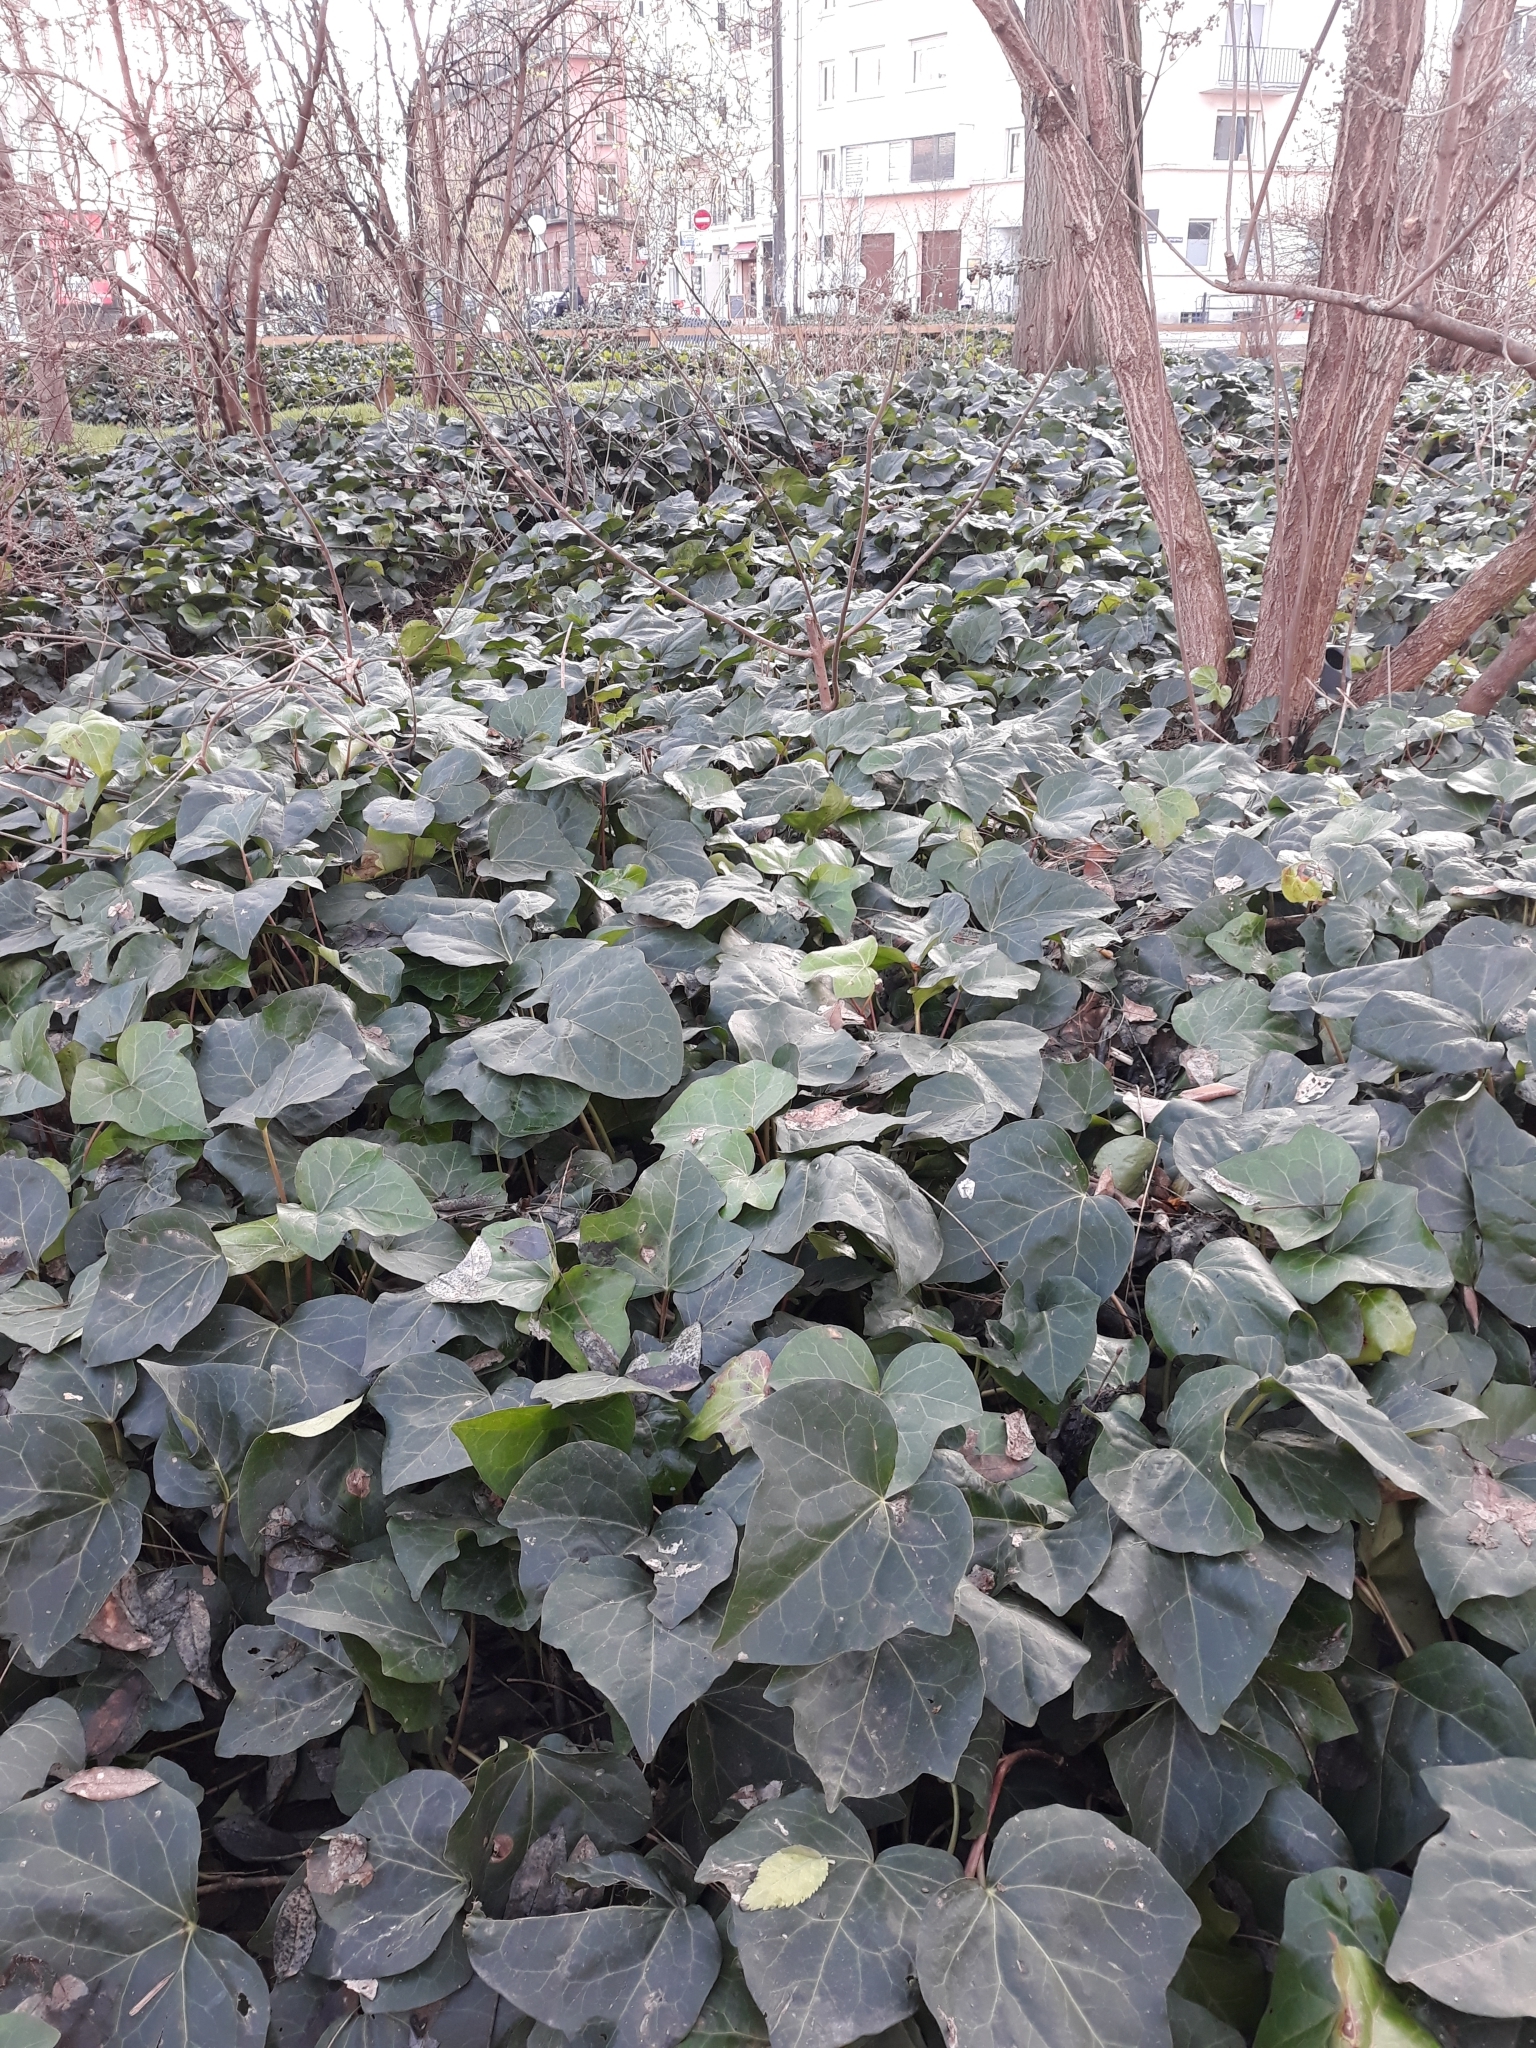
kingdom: Plantae
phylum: Tracheophyta
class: Magnoliopsida
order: Apiales
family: Araliaceae
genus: Hedera
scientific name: Hedera helix
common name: Ivy
